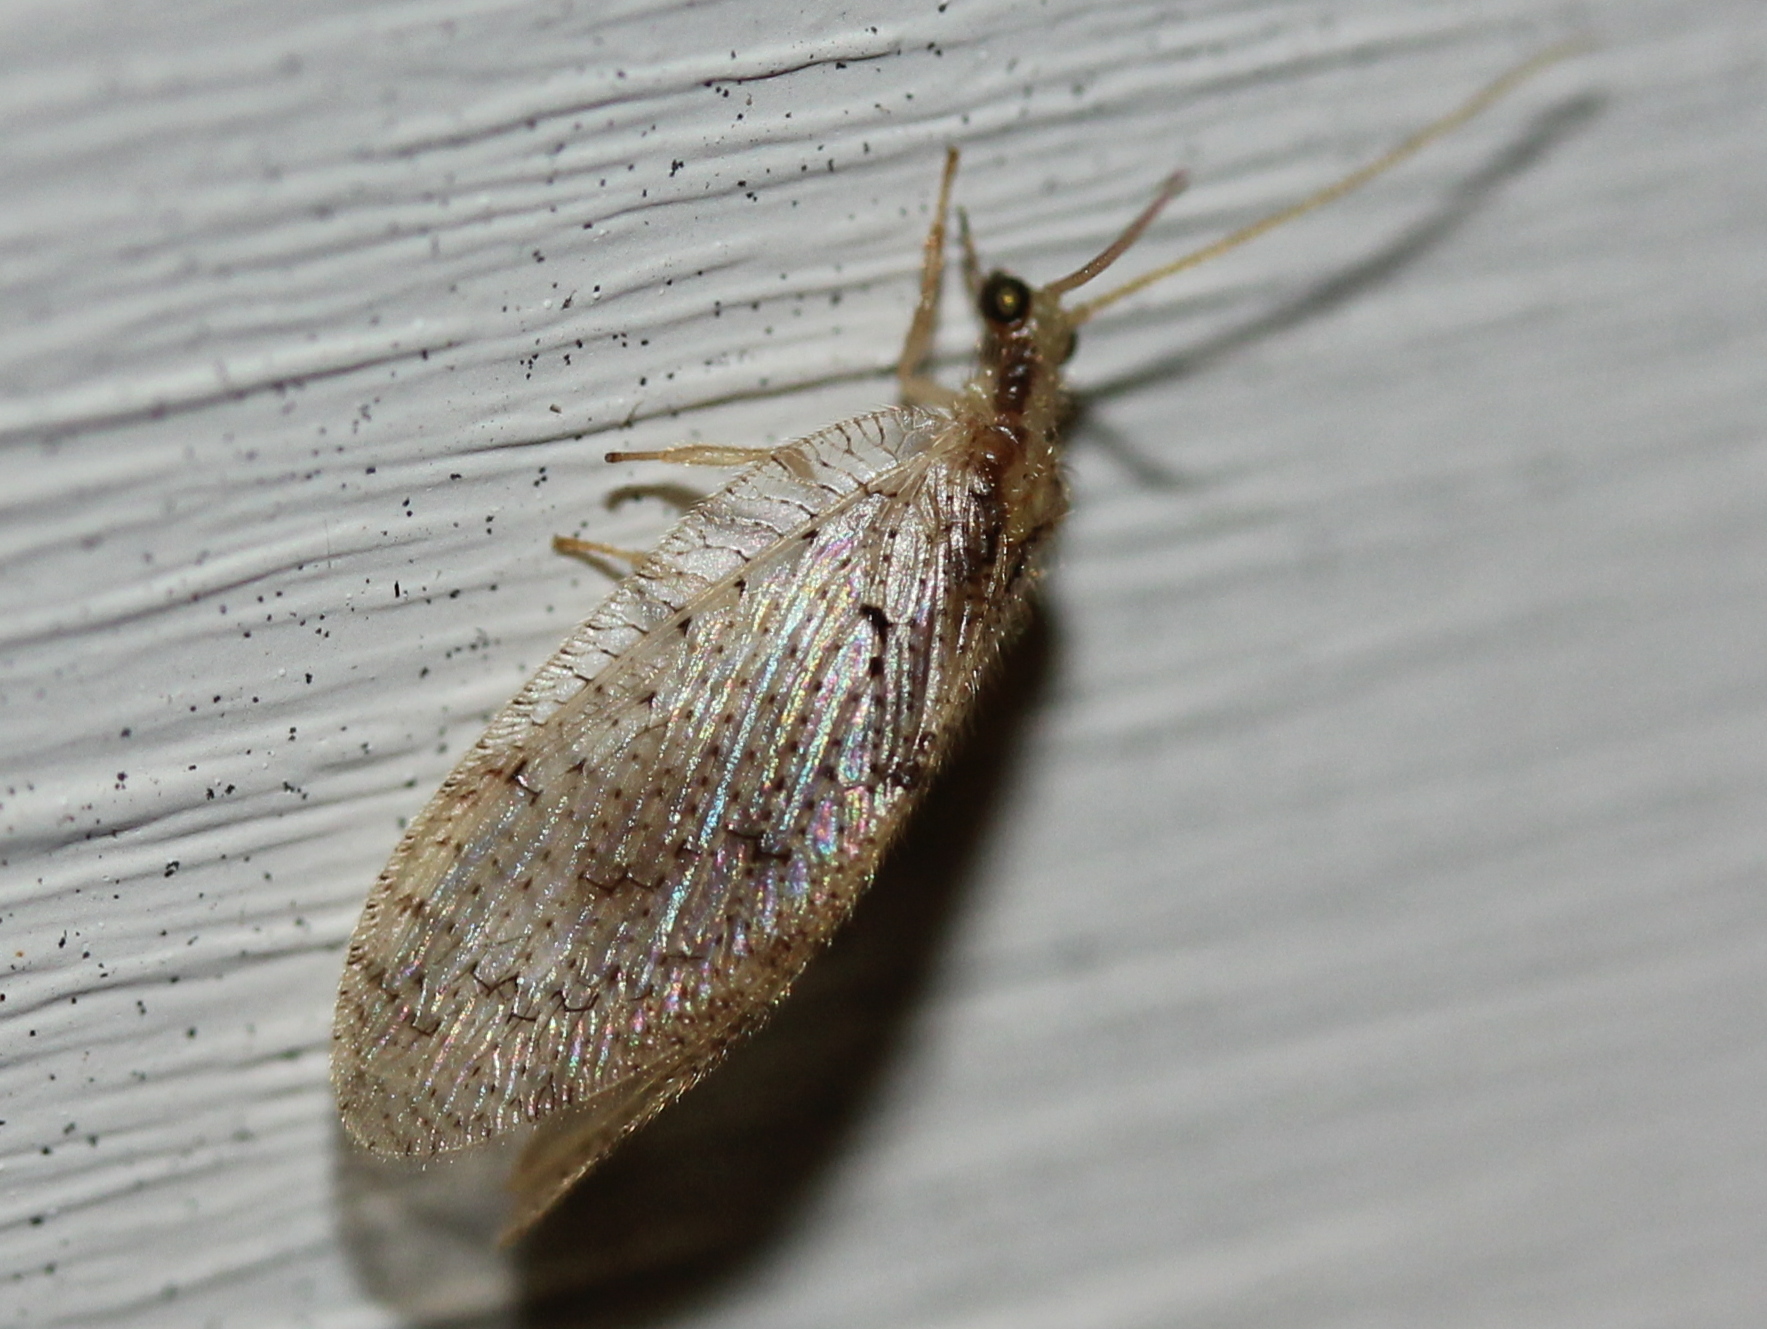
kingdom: Animalia
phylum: Arthropoda
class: Insecta
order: Neuroptera
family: Hemerobiidae
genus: Micromus
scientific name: Micromus posticus
